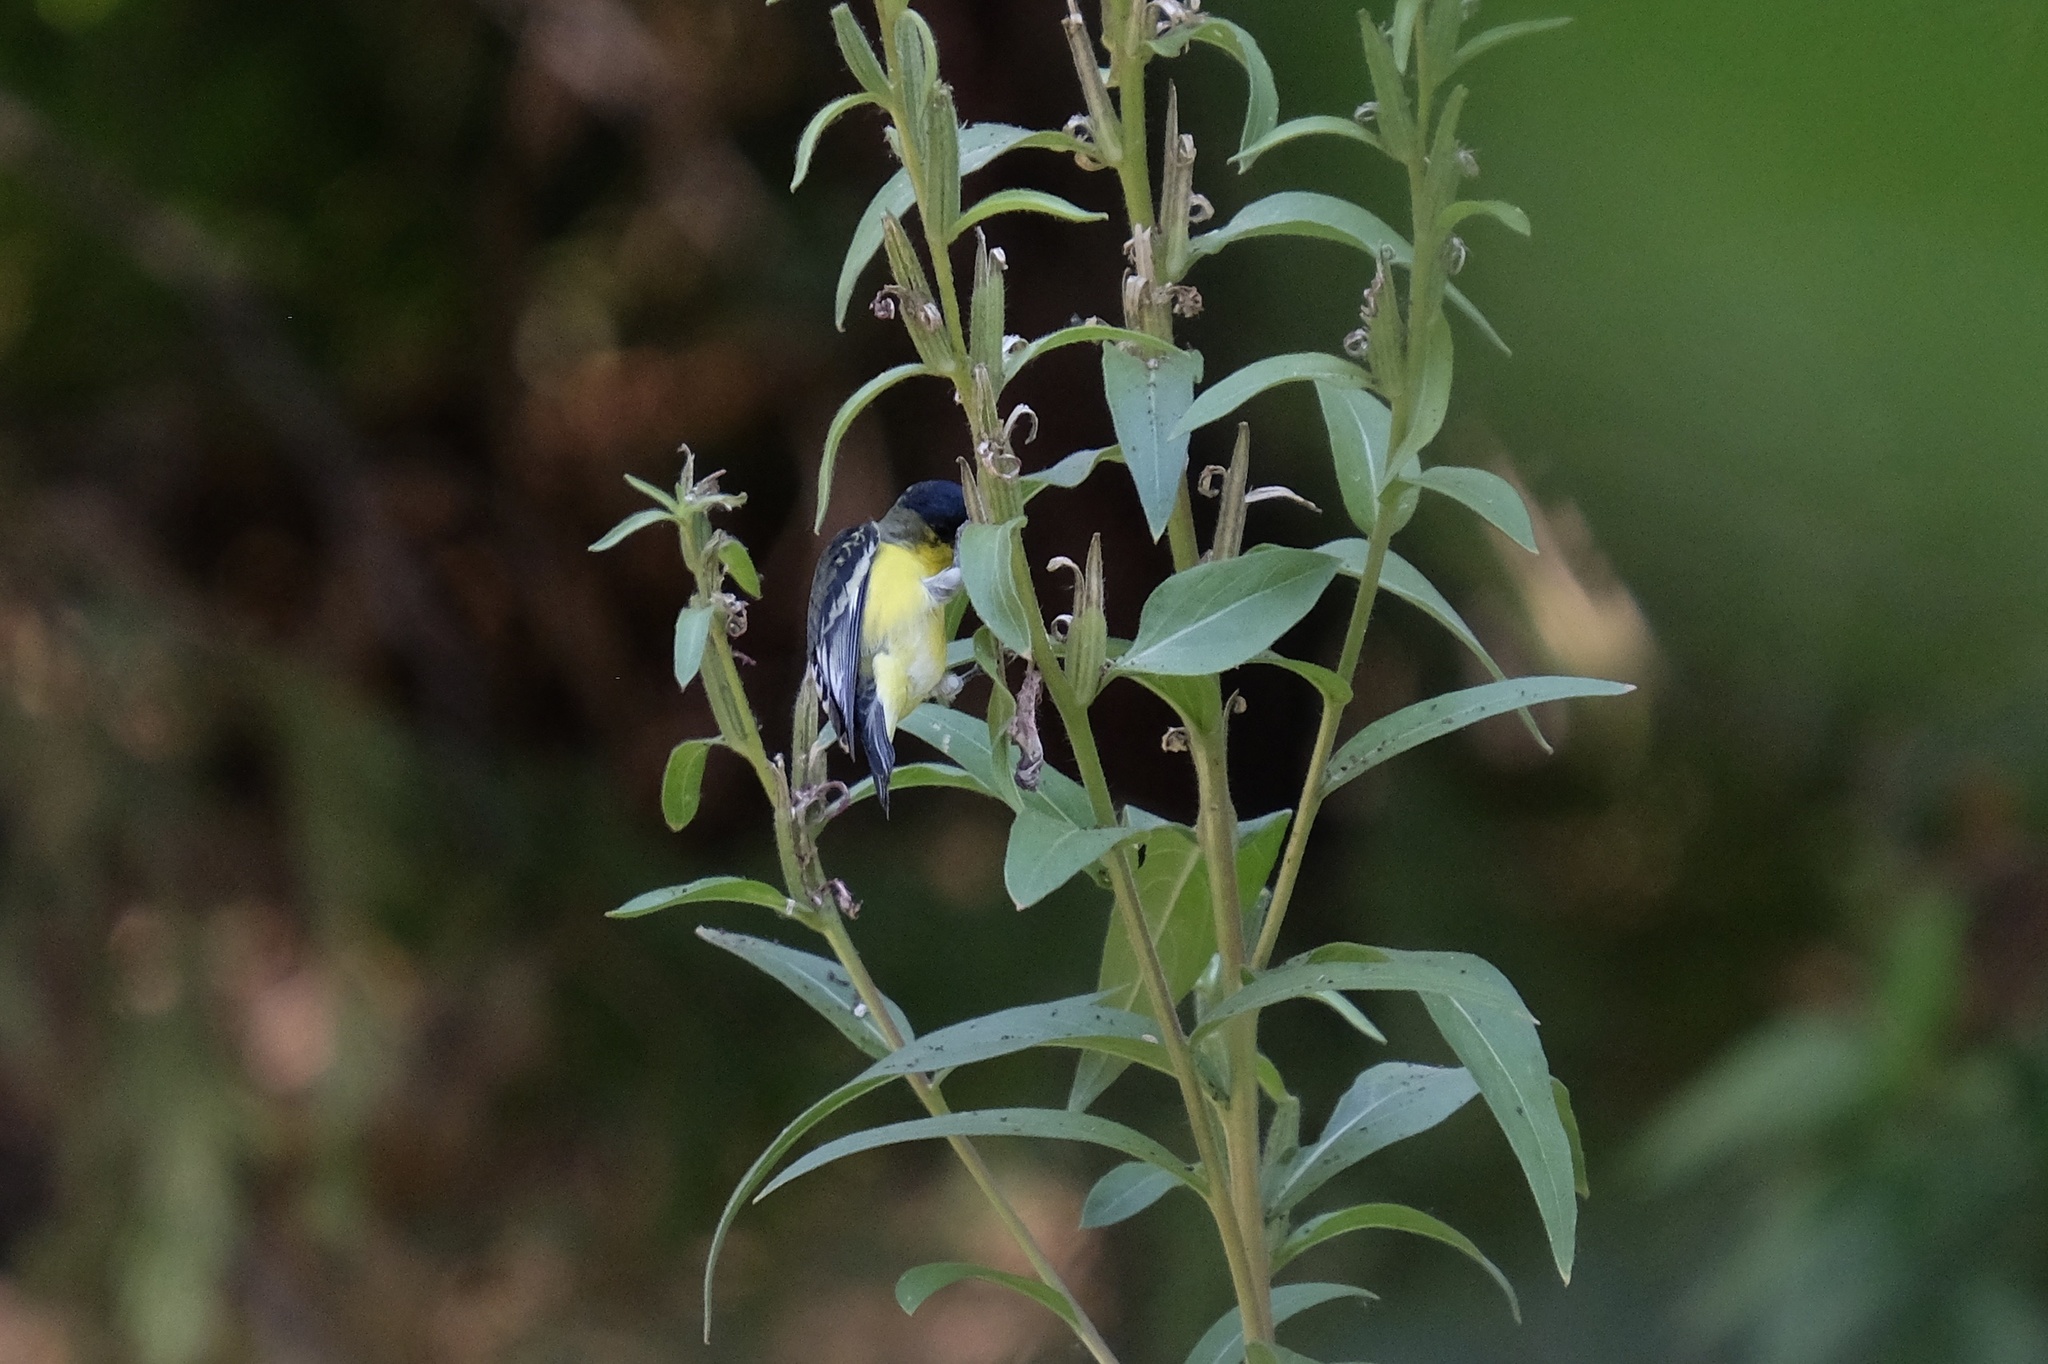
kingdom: Animalia
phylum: Chordata
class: Aves
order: Passeriformes
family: Fringillidae
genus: Spinus
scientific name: Spinus psaltria
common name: Lesser goldfinch
